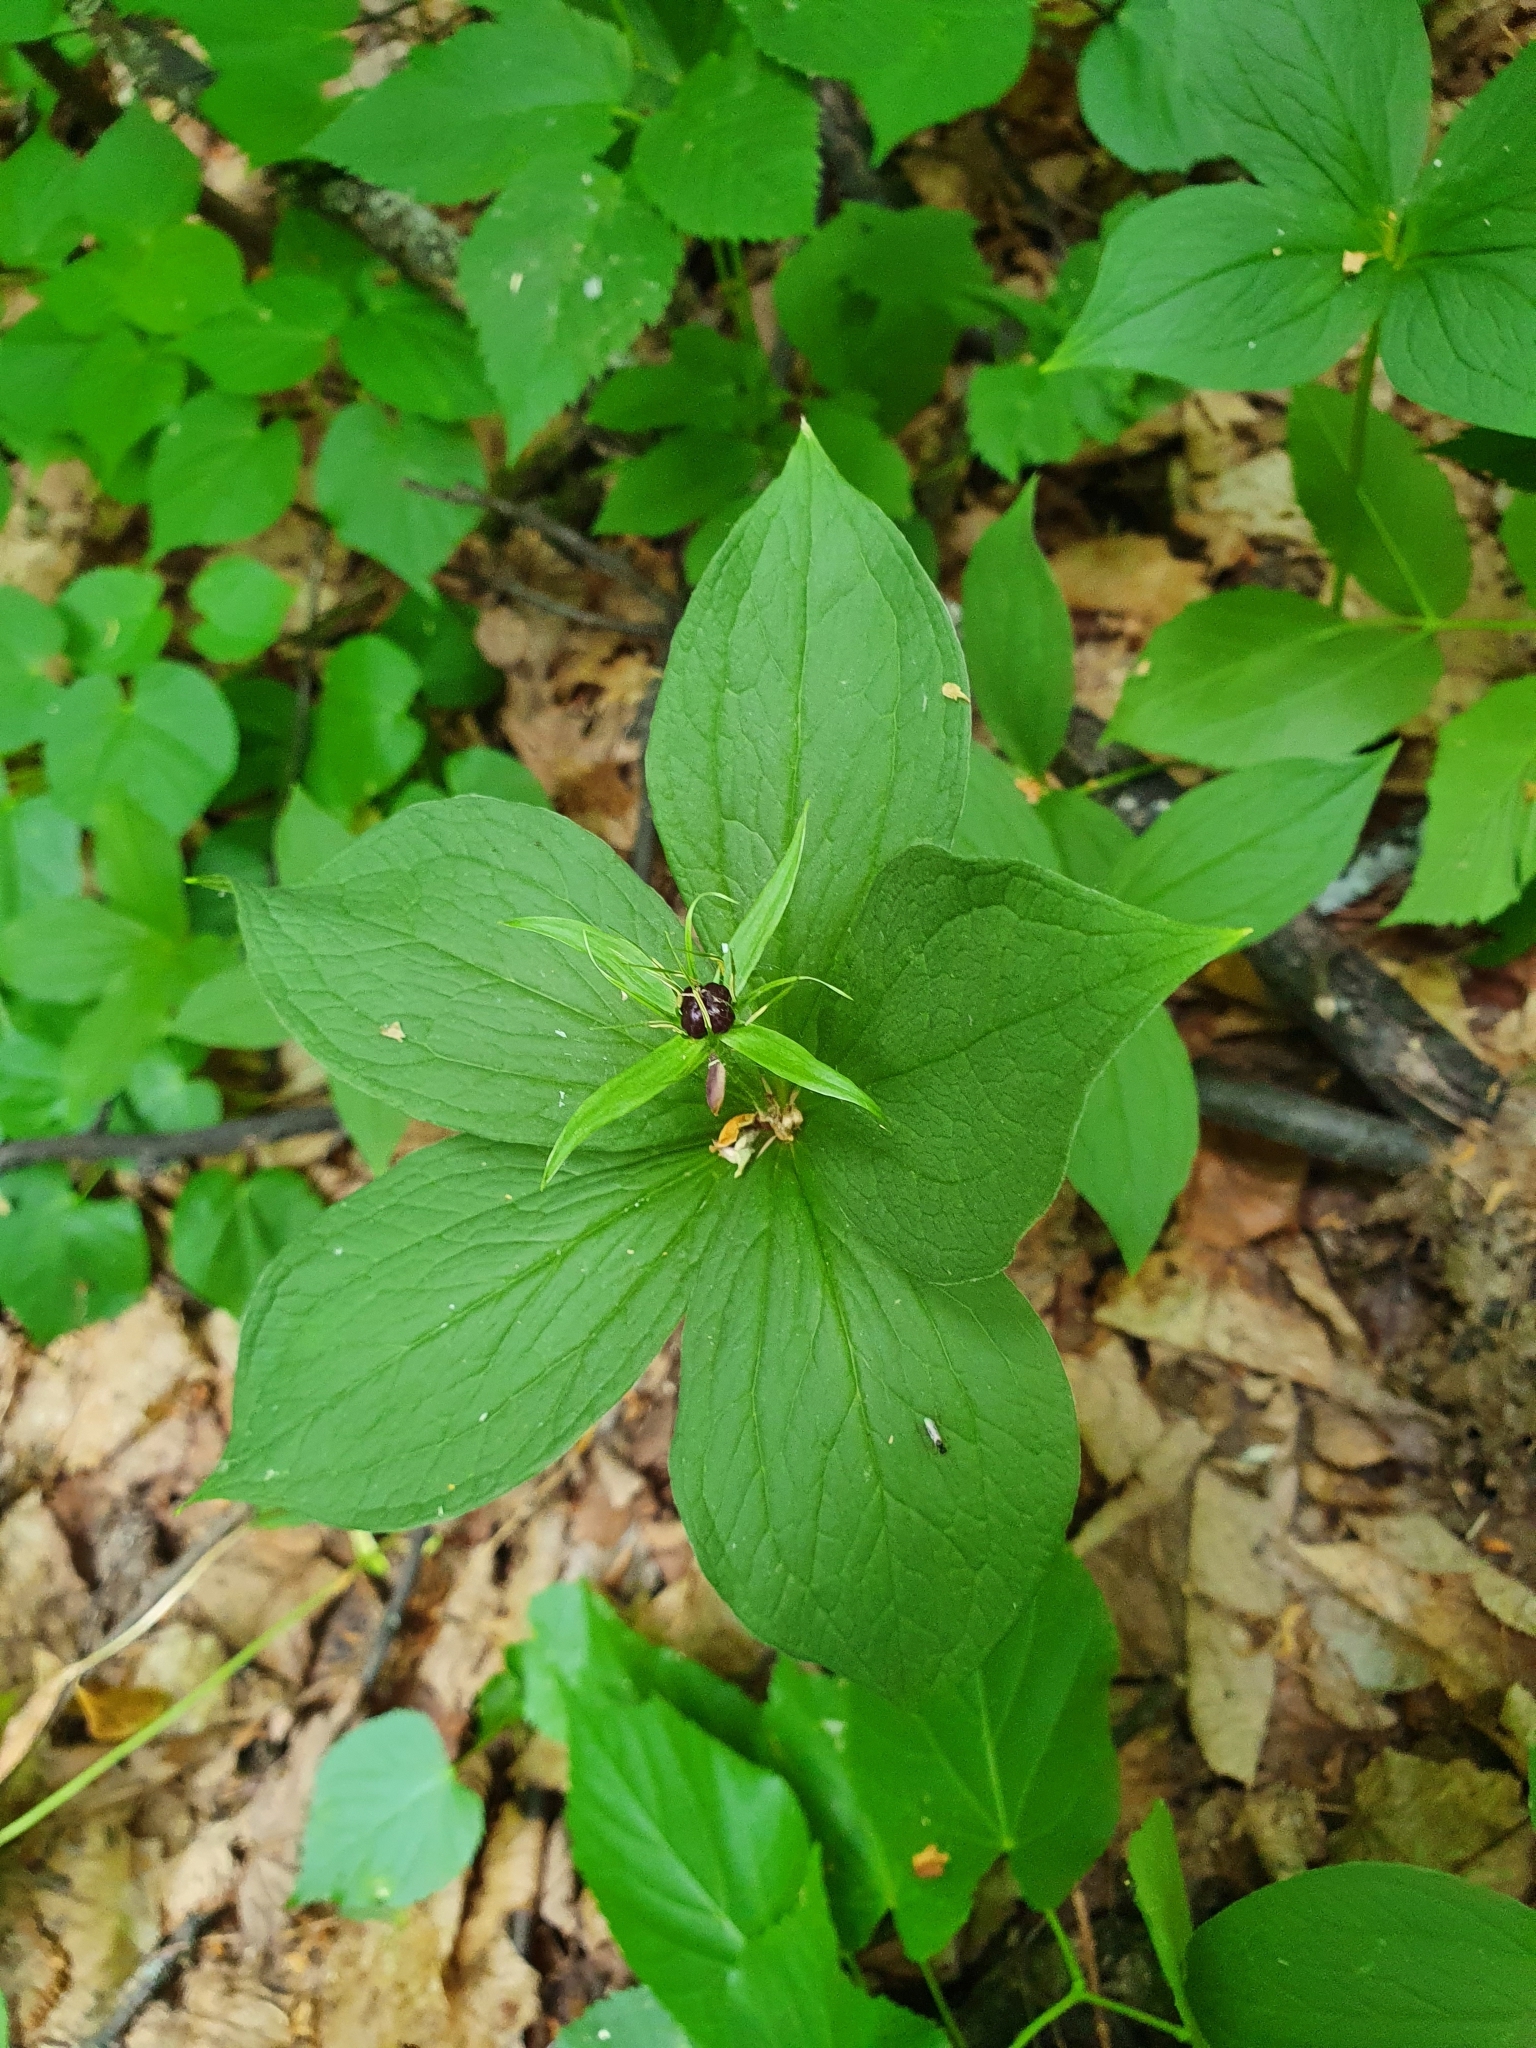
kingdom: Plantae
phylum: Tracheophyta
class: Liliopsida
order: Liliales
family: Melanthiaceae
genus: Paris
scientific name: Paris quadrifolia
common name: Herb-paris
